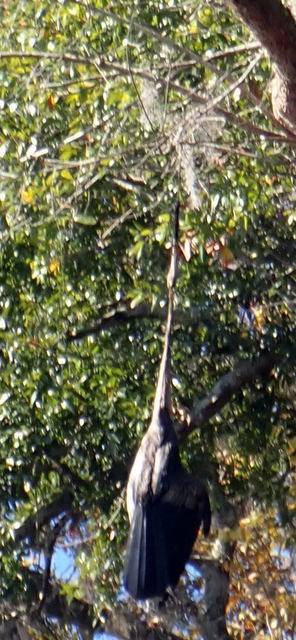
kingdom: Animalia
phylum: Chordata
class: Aves
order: Suliformes
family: Anhingidae
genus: Anhinga
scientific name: Anhinga anhinga
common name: Anhinga
